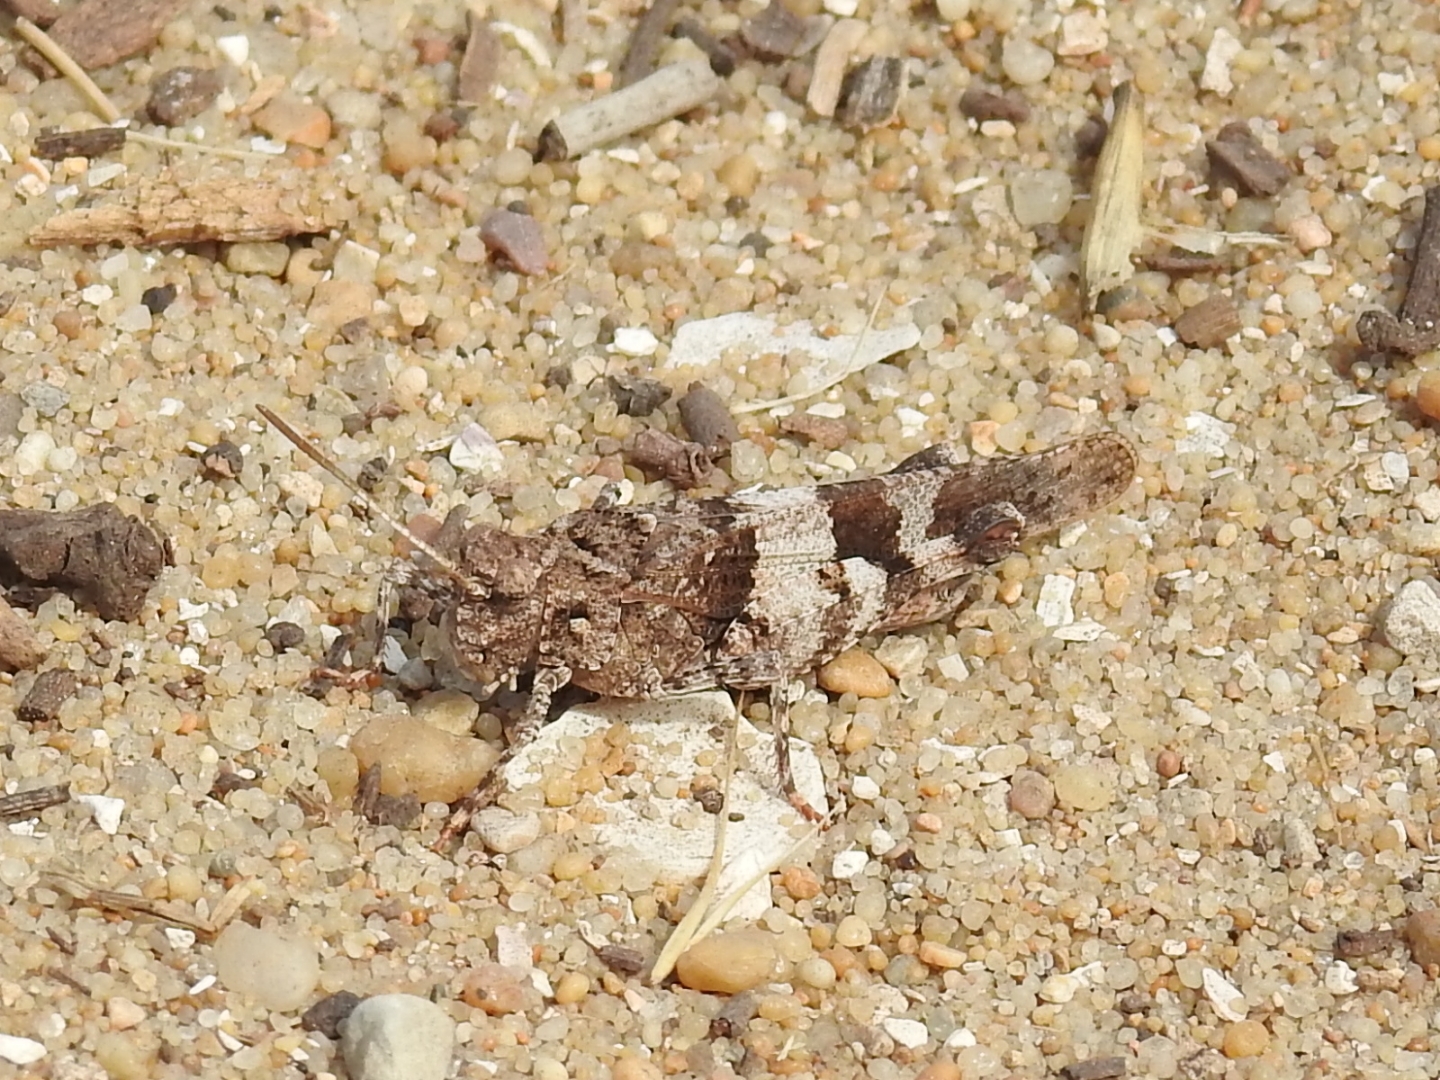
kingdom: Animalia
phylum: Arthropoda
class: Insecta
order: Orthoptera
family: Acrididae
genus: Oedipoda
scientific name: Oedipoda caerulescens
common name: Blue-winged grasshopper
